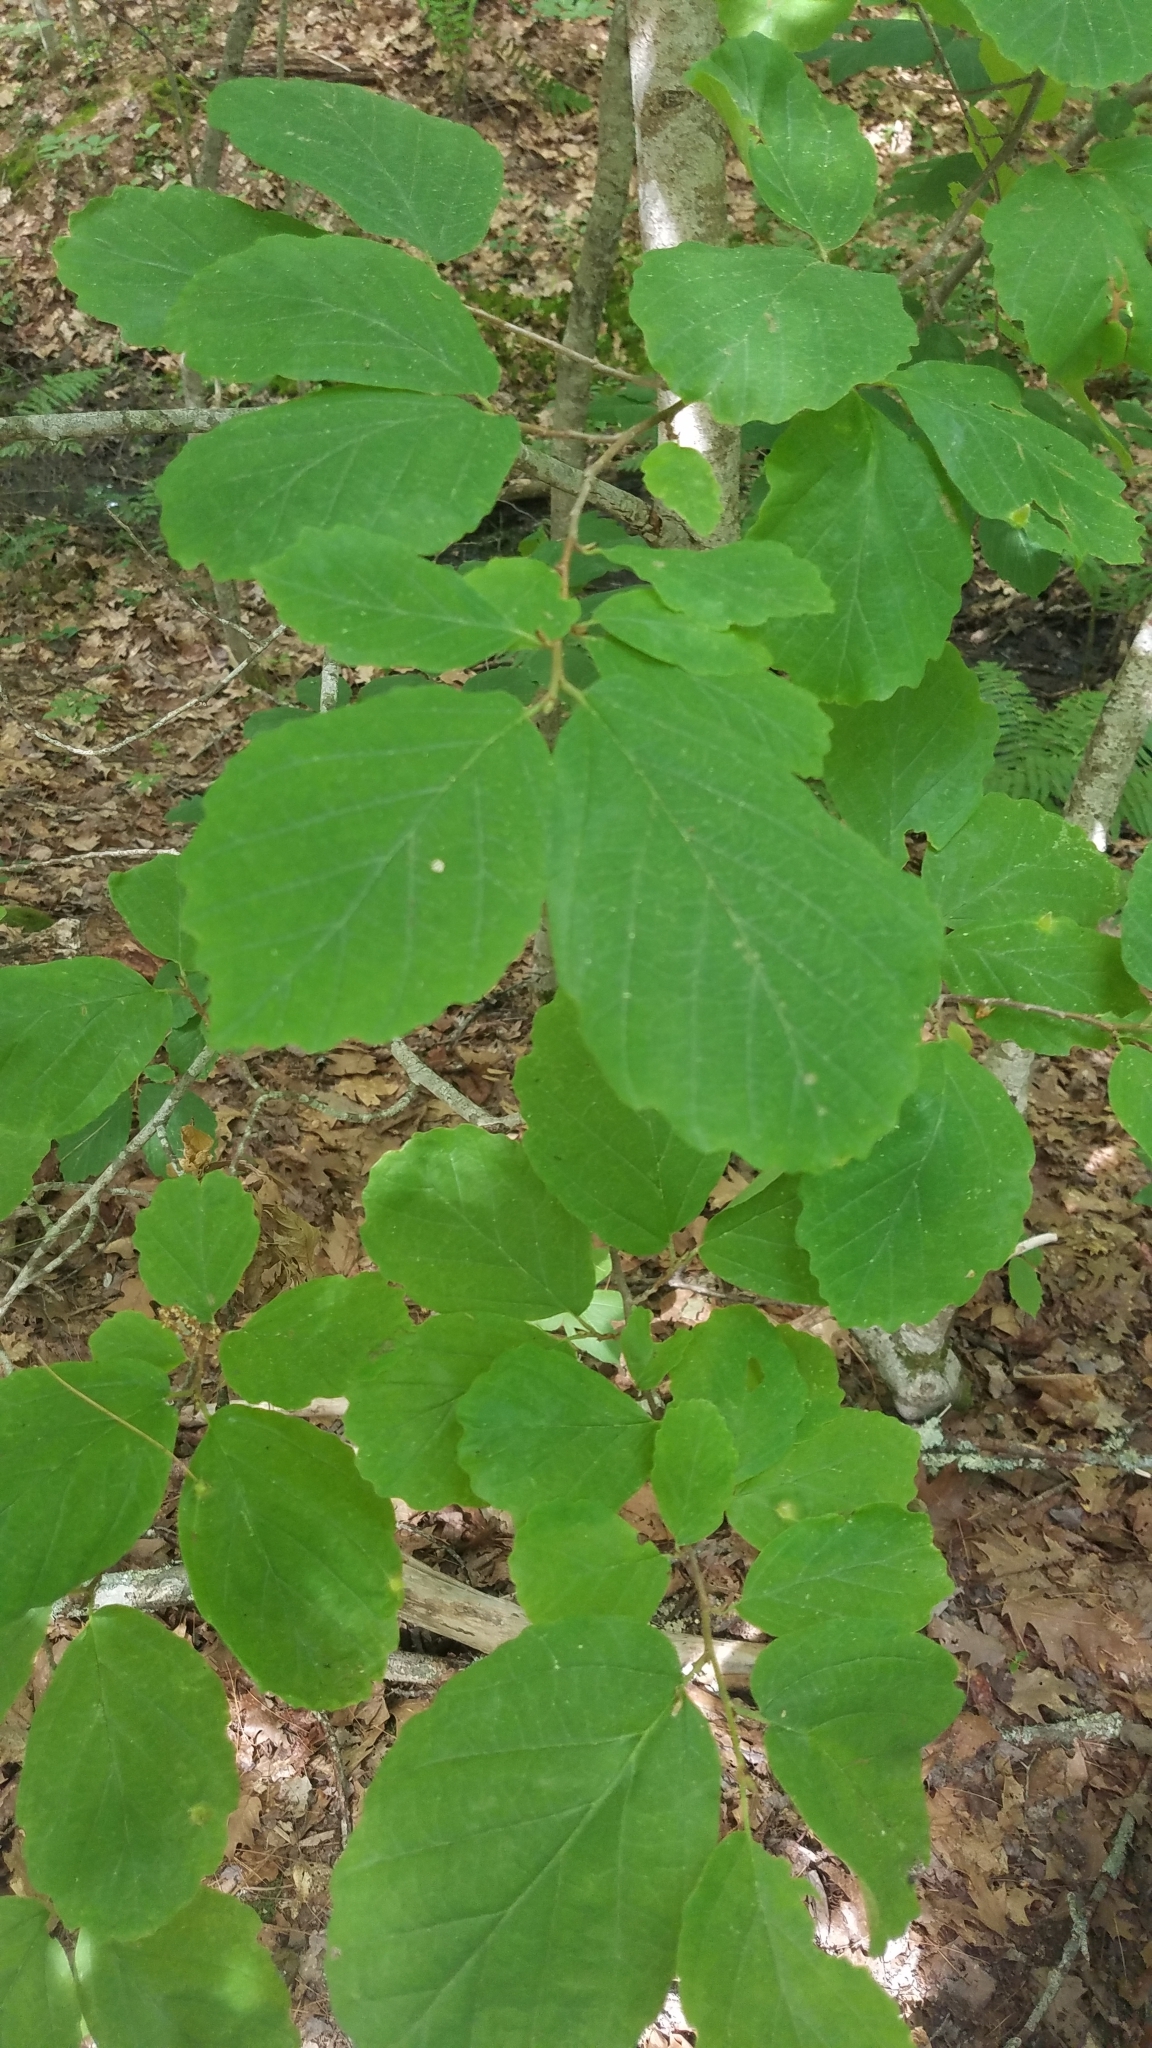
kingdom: Plantae
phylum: Tracheophyta
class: Magnoliopsida
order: Saxifragales
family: Hamamelidaceae
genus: Hamamelis
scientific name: Hamamelis virginiana
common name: Witch-hazel
